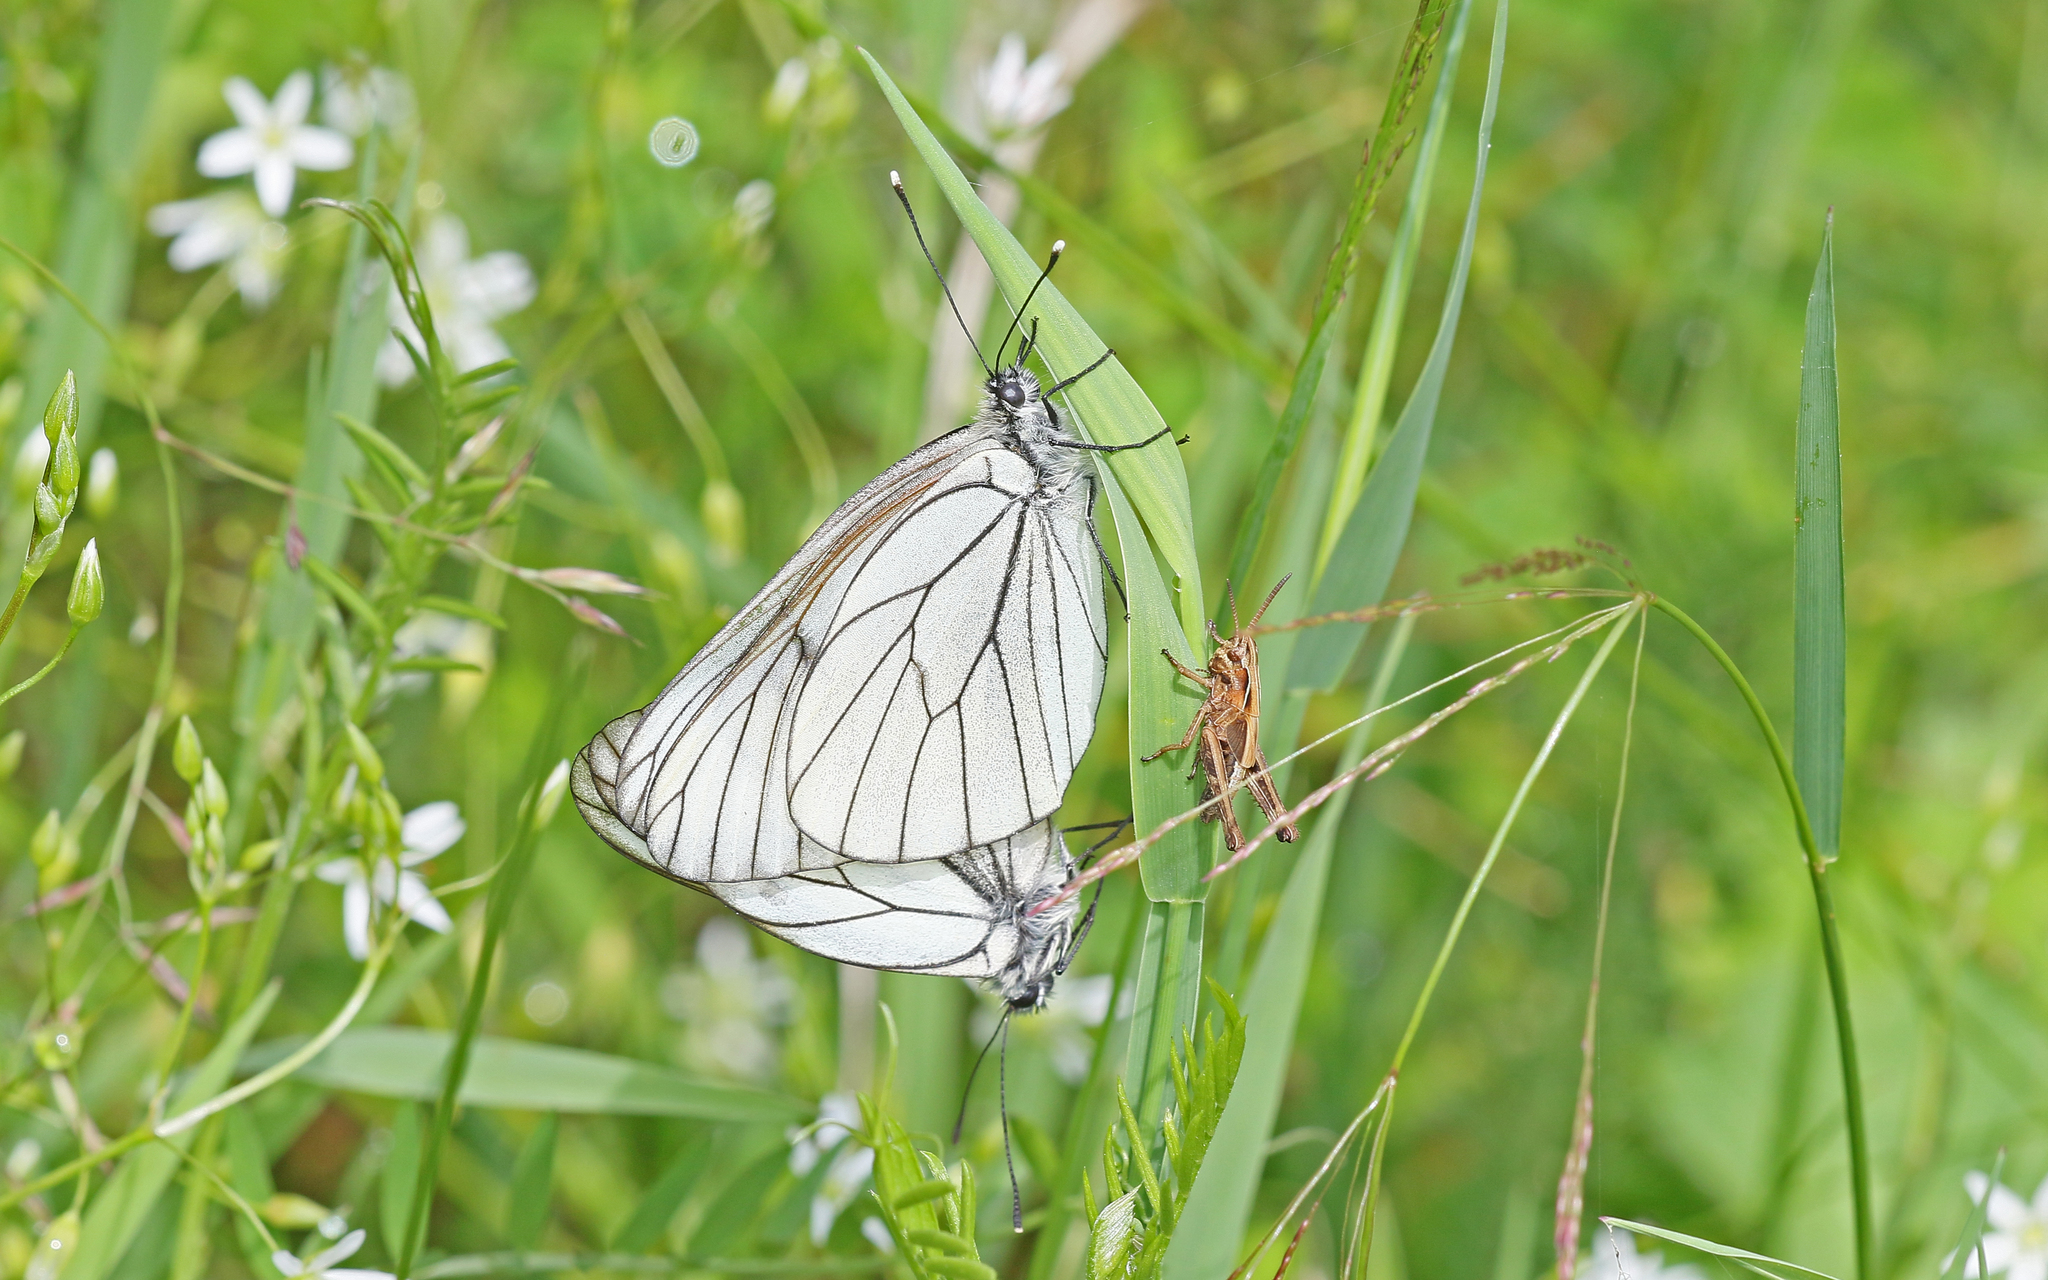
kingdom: Animalia
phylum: Arthropoda
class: Insecta
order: Lepidoptera
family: Pieridae
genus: Aporia
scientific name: Aporia crataegi
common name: Black-veined white
